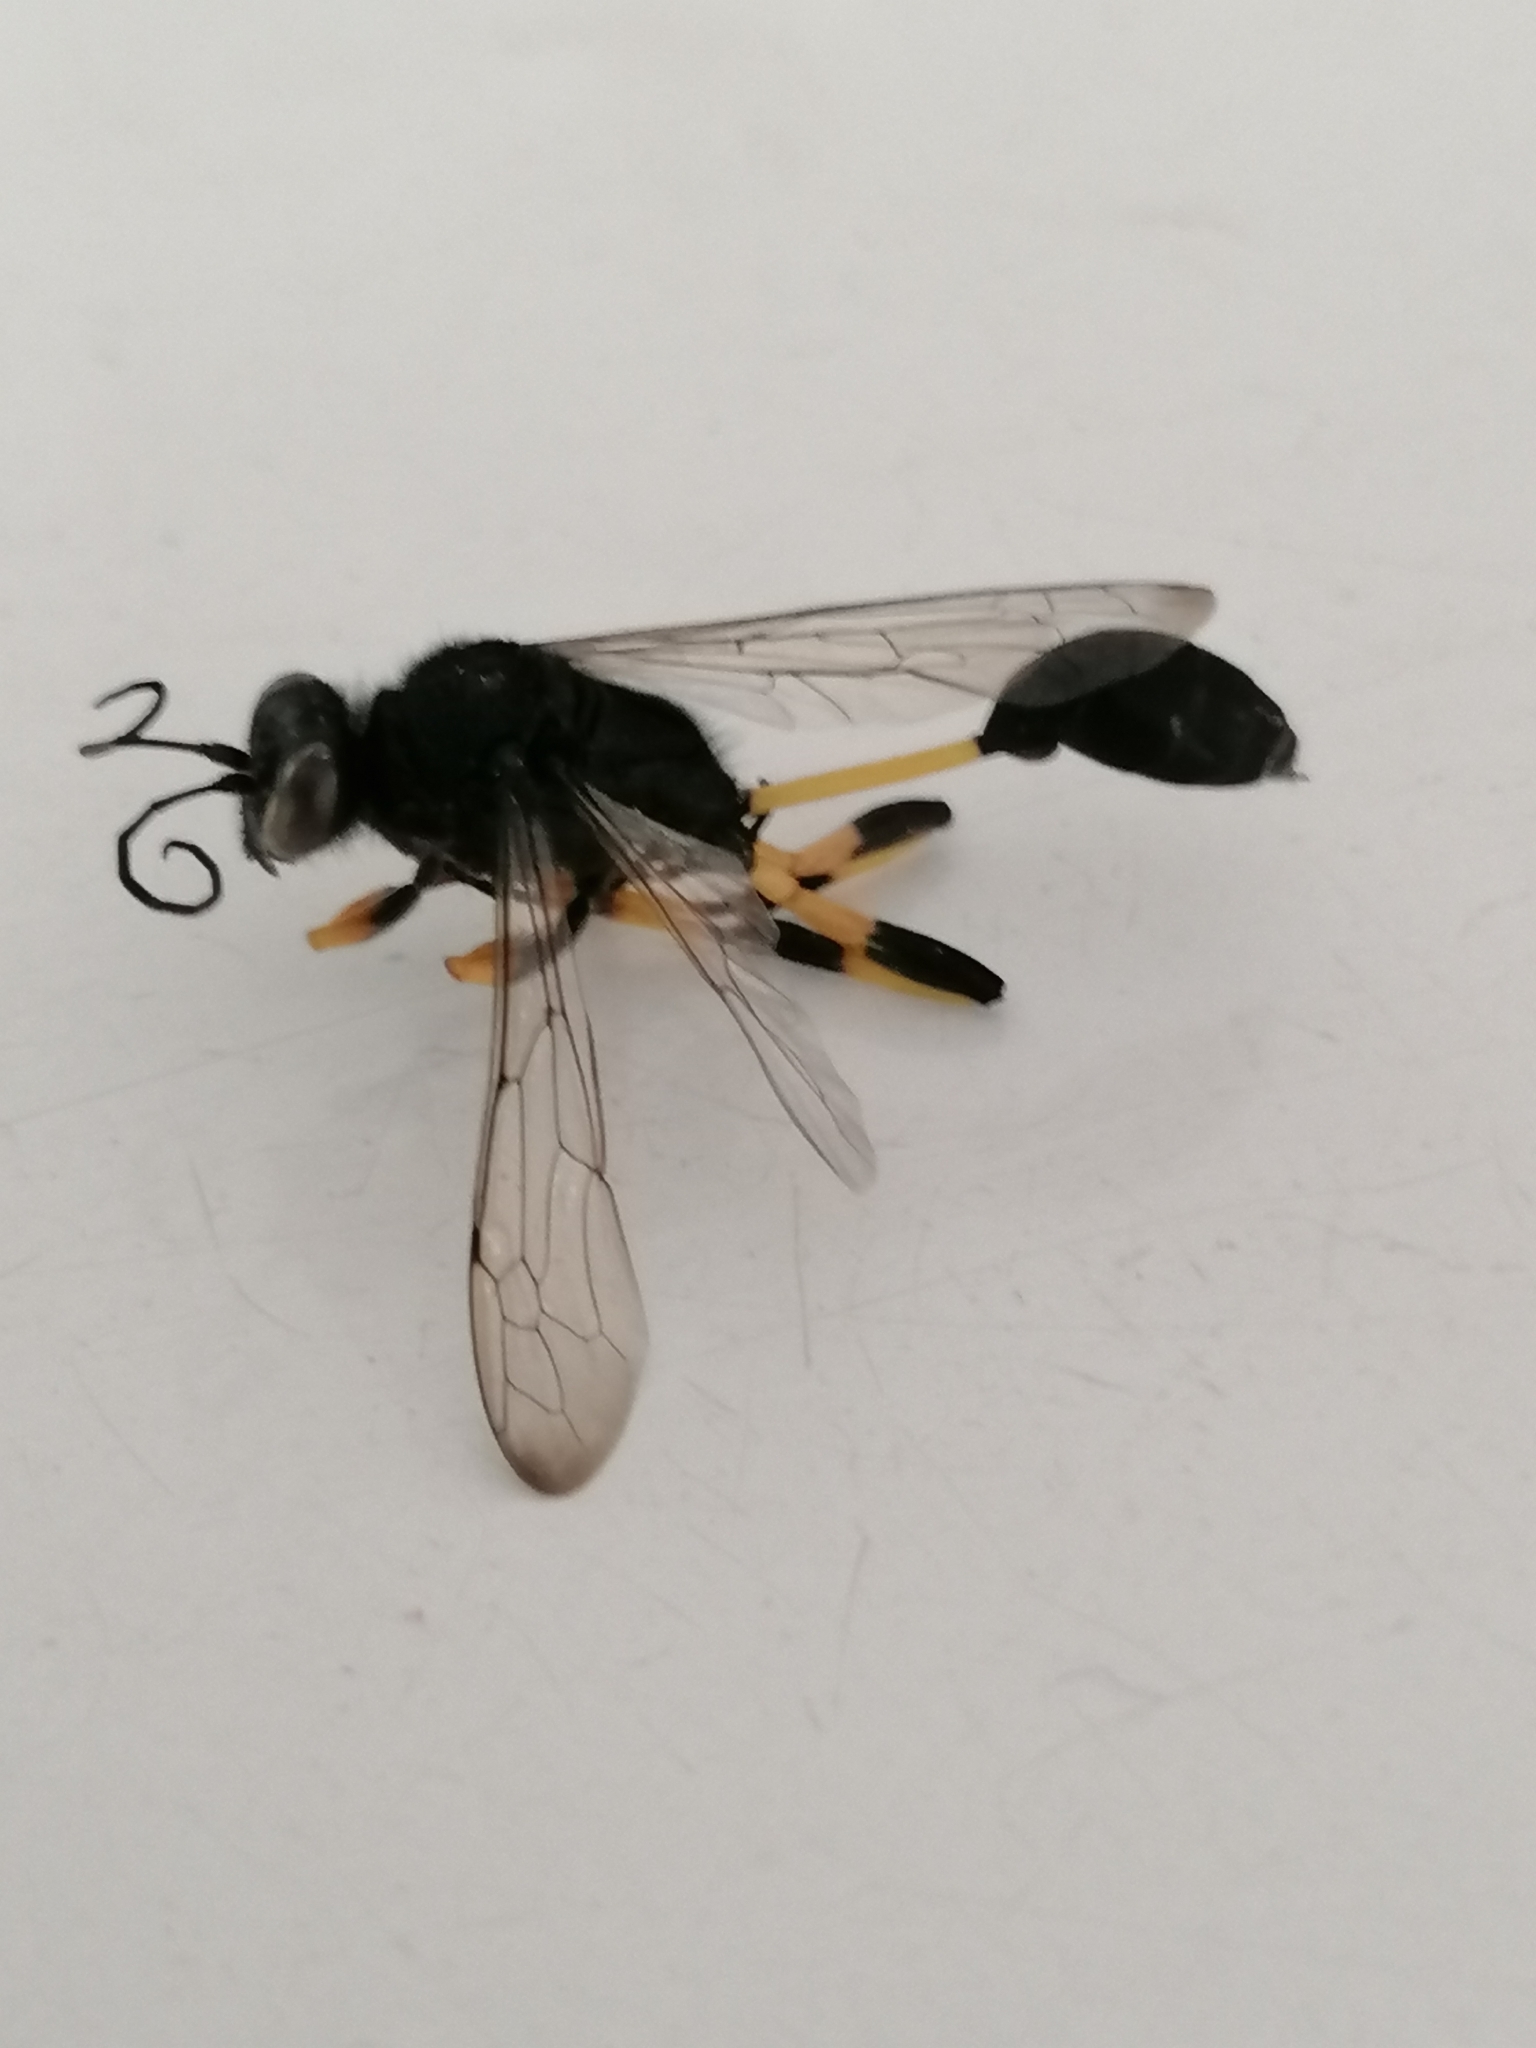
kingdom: Animalia
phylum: Arthropoda
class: Insecta
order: Hymenoptera
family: Sphecidae
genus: Sceliphron
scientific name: Sceliphron spirifex
